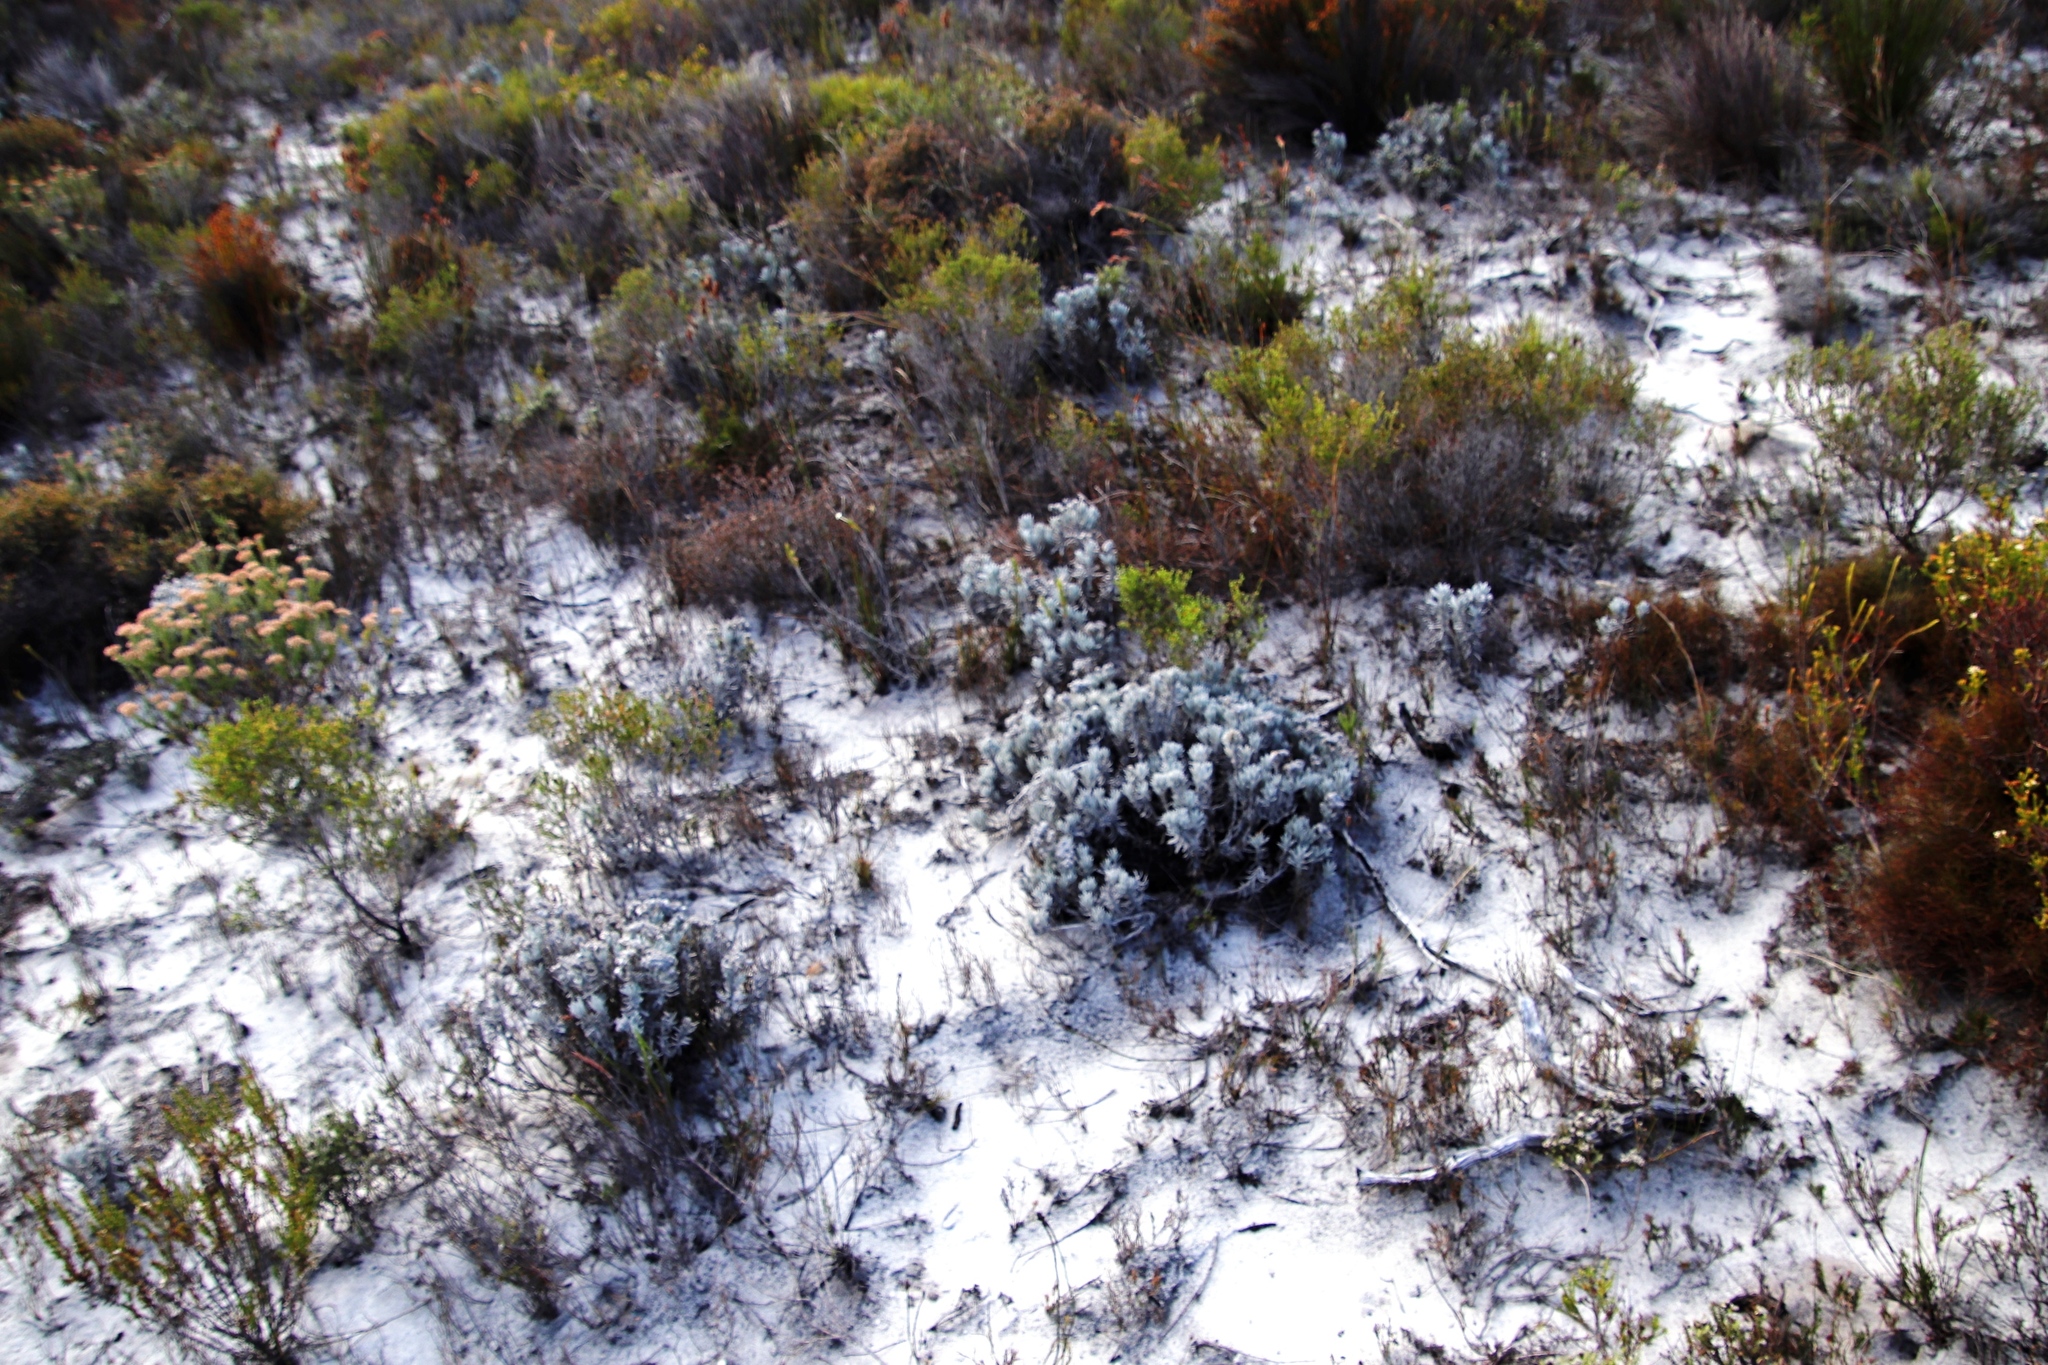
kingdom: Plantae
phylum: Tracheophyta
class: Magnoliopsida
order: Asterales
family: Asteraceae
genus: Petalacte
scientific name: Petalacte coronata
